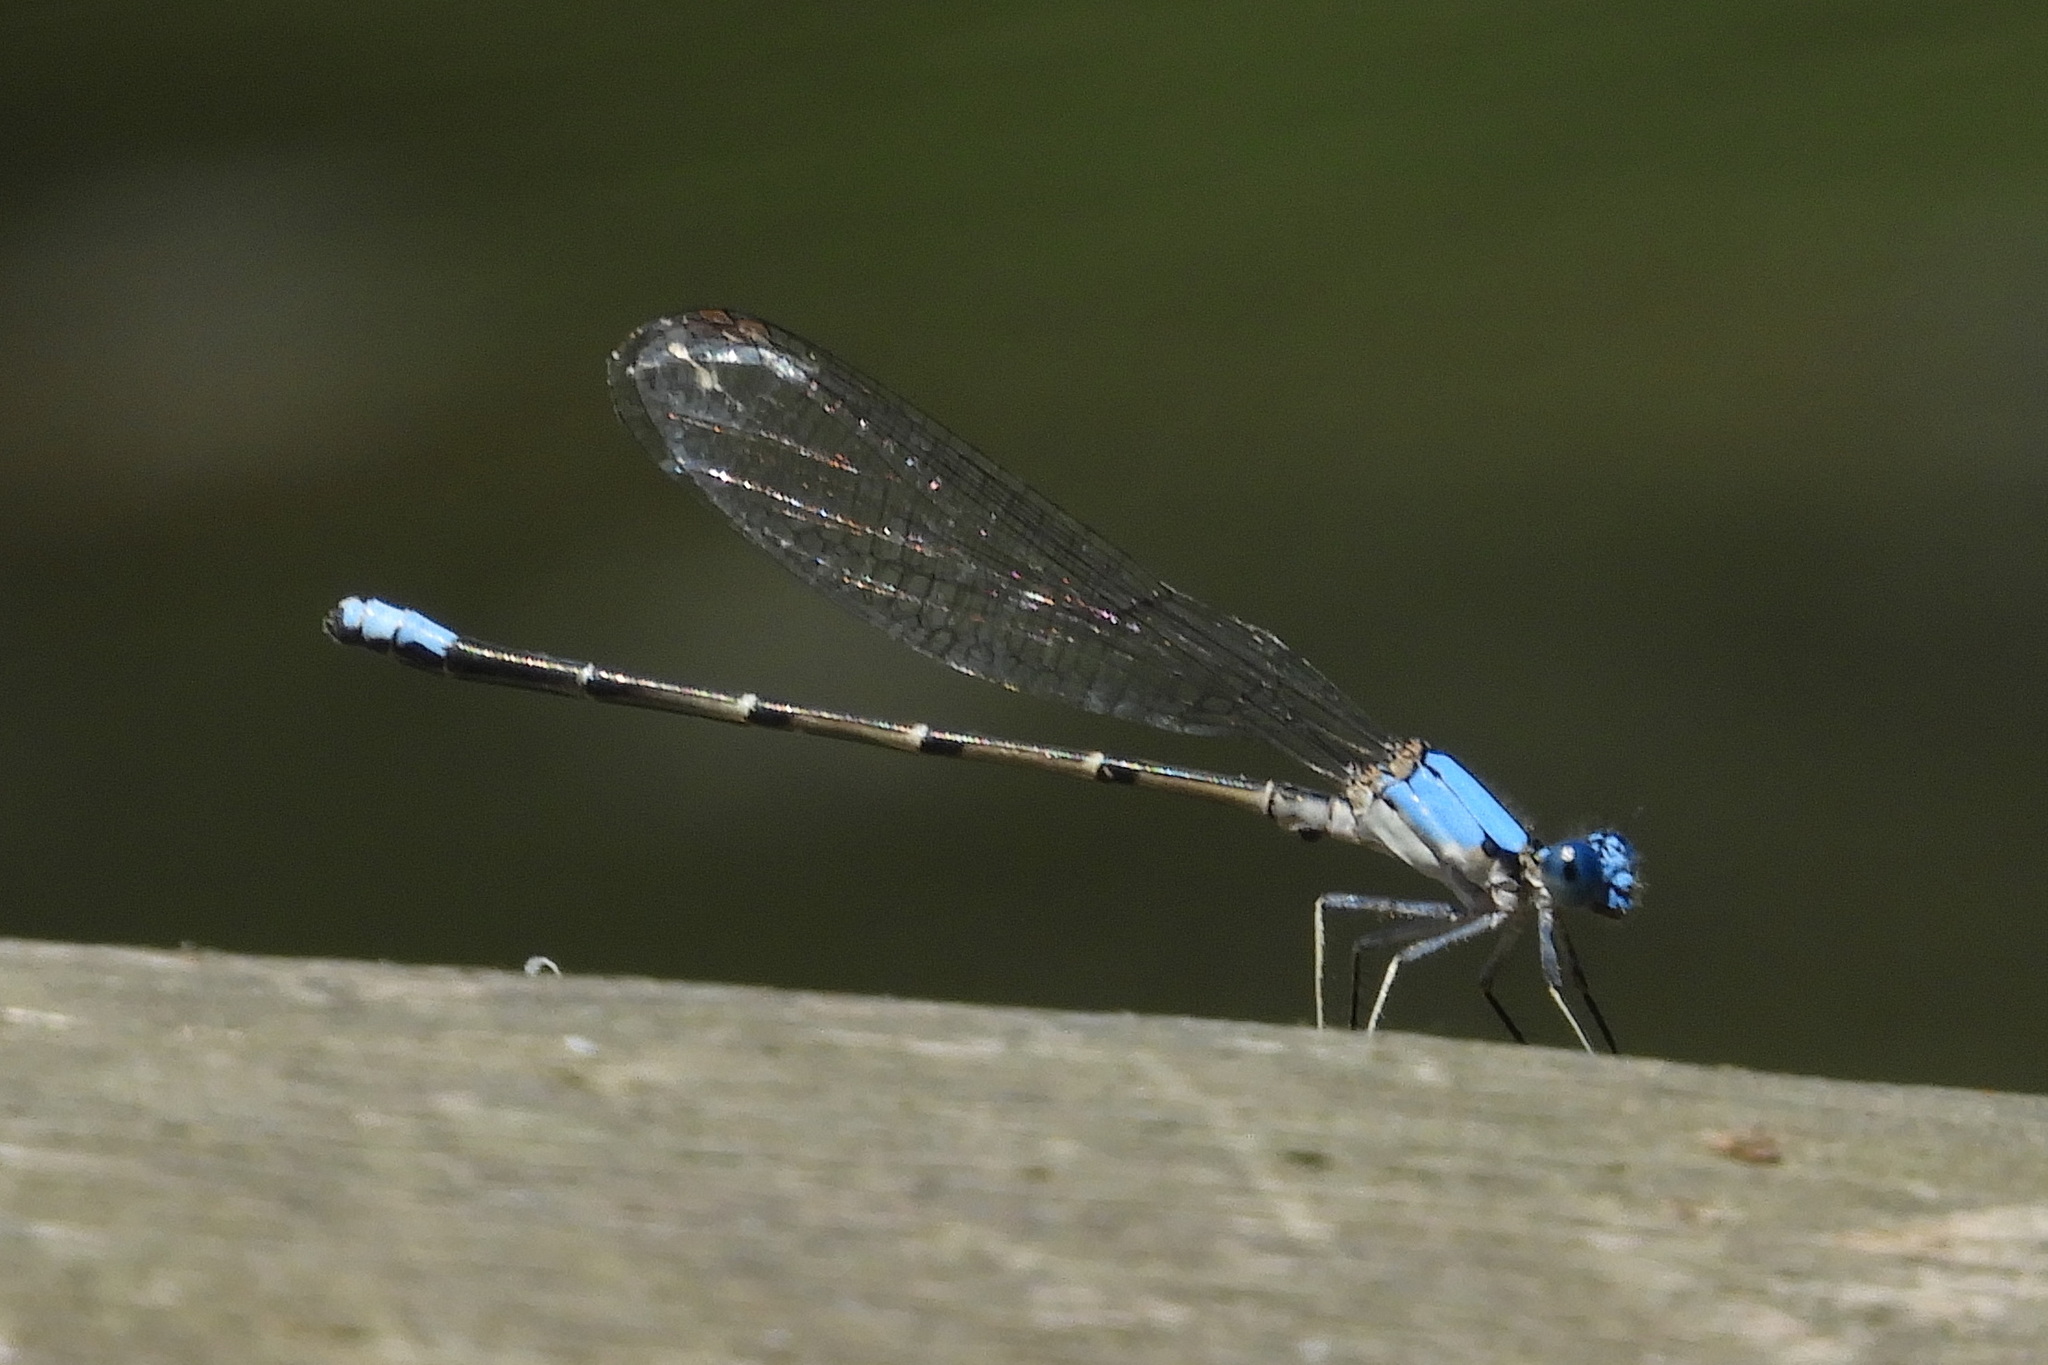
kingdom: Animalia
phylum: Arthropoda
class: Insecta
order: Odonata
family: Coenagrionidae
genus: Argia
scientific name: Argia apicalis
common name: Blue-fronted dancer
